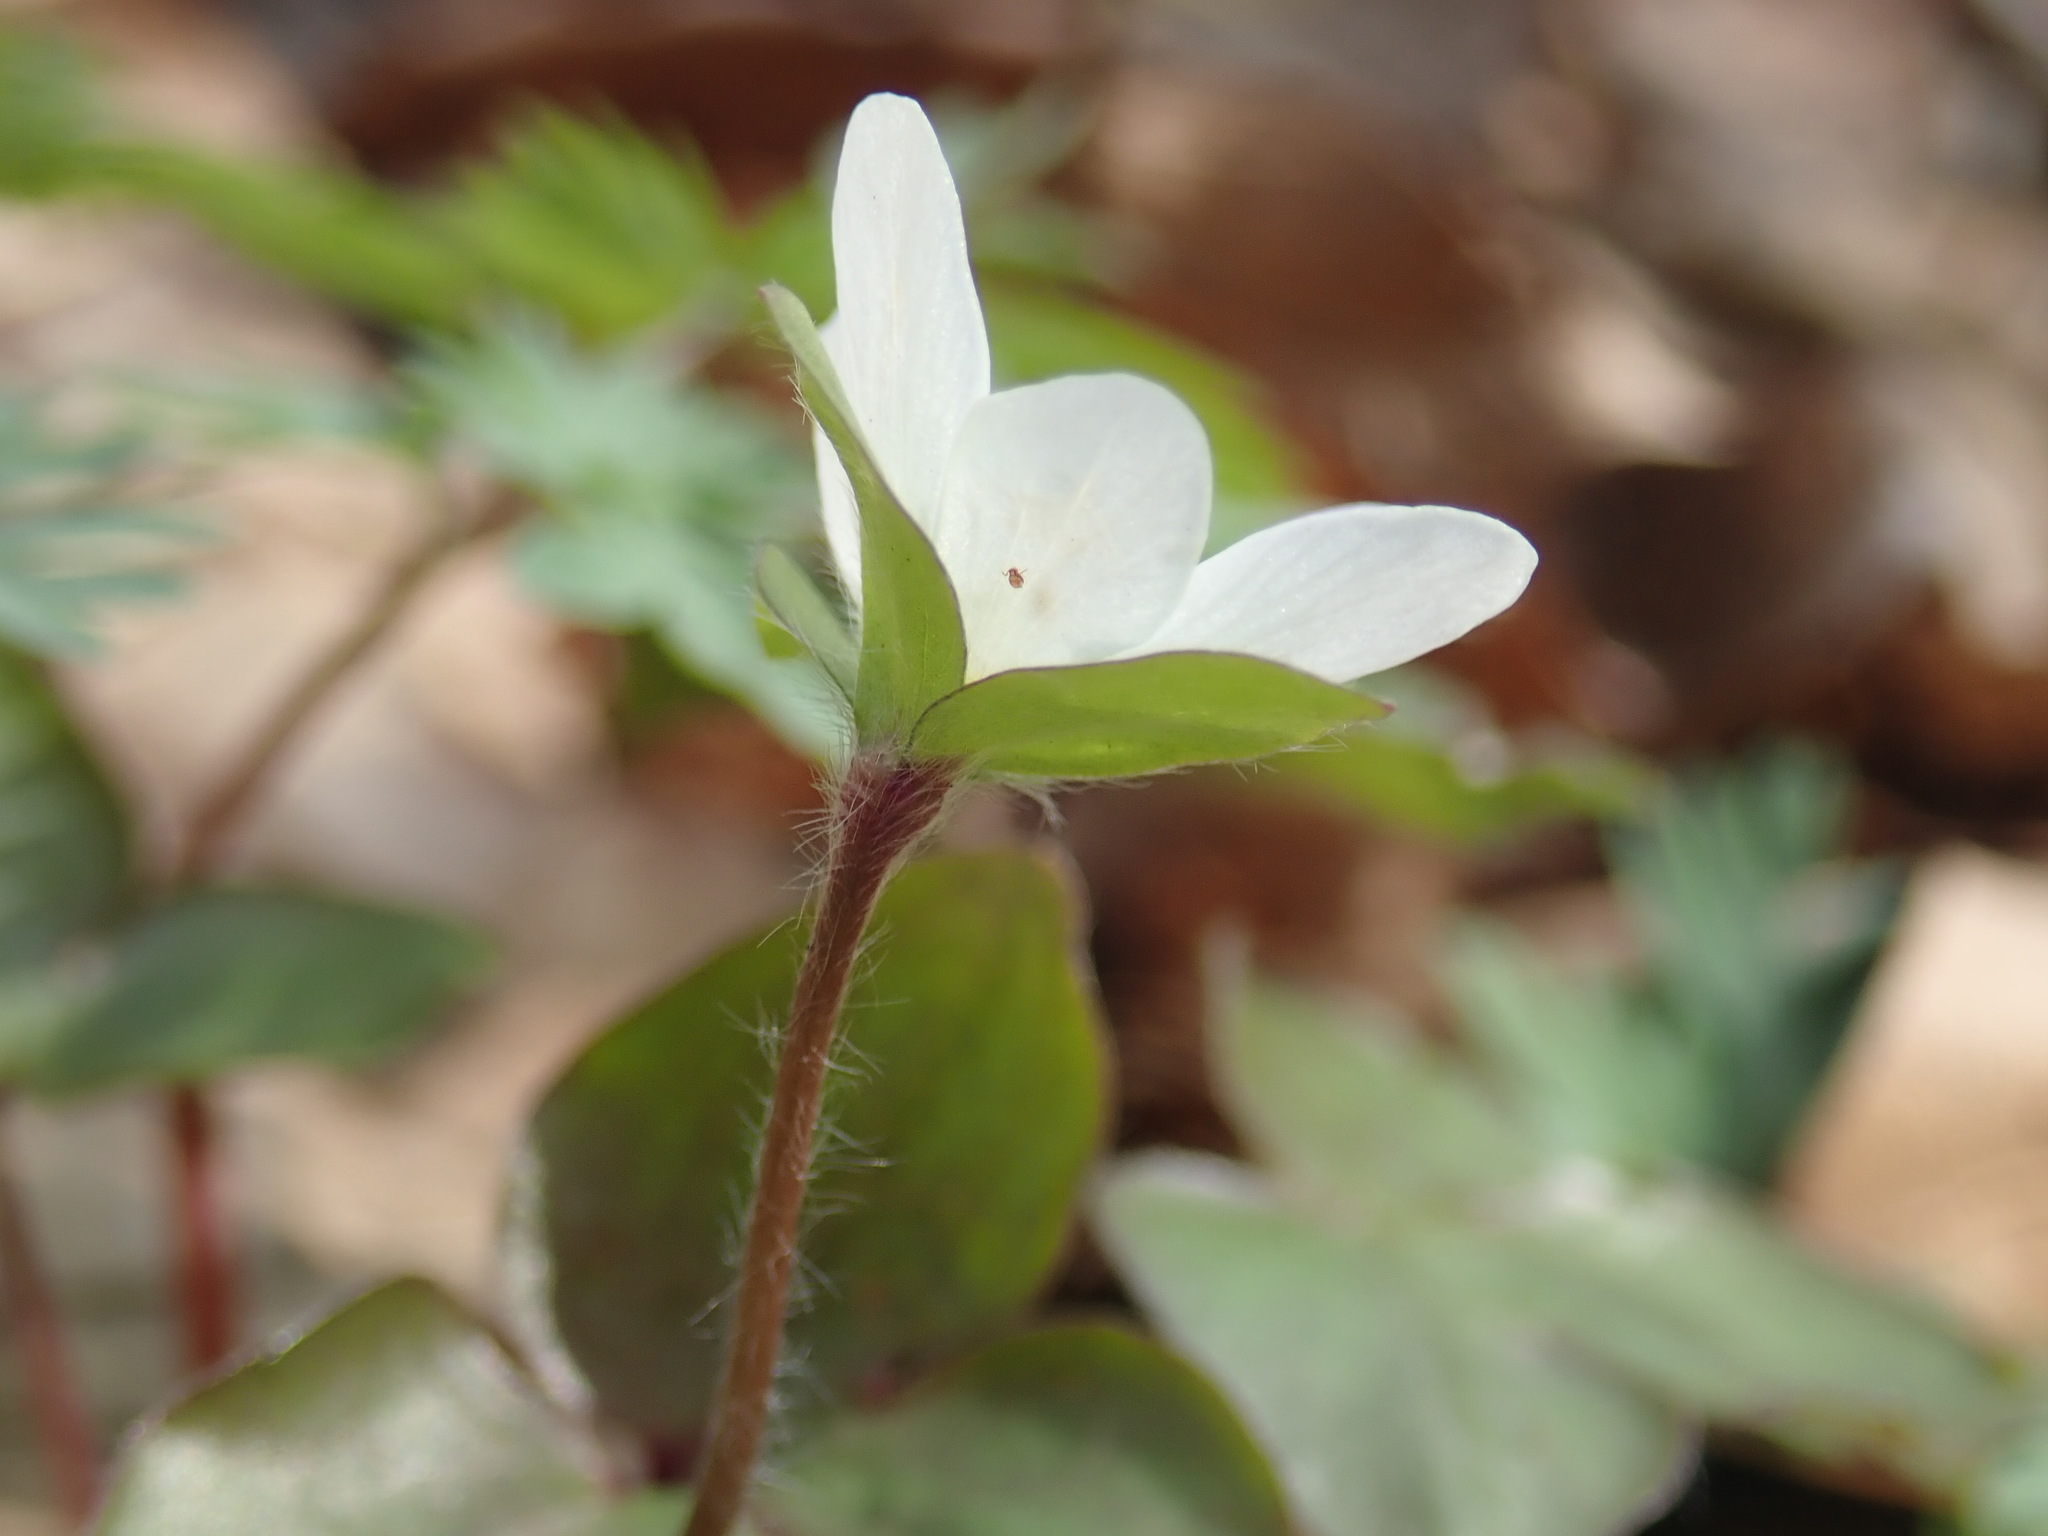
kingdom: Plantae
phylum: Tracheophyta
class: Magnoliopsida
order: Ranunculales
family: Ranunculaceae
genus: Hepatica
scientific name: Hepatica acutiloba
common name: Sharp-lobed hepatica
